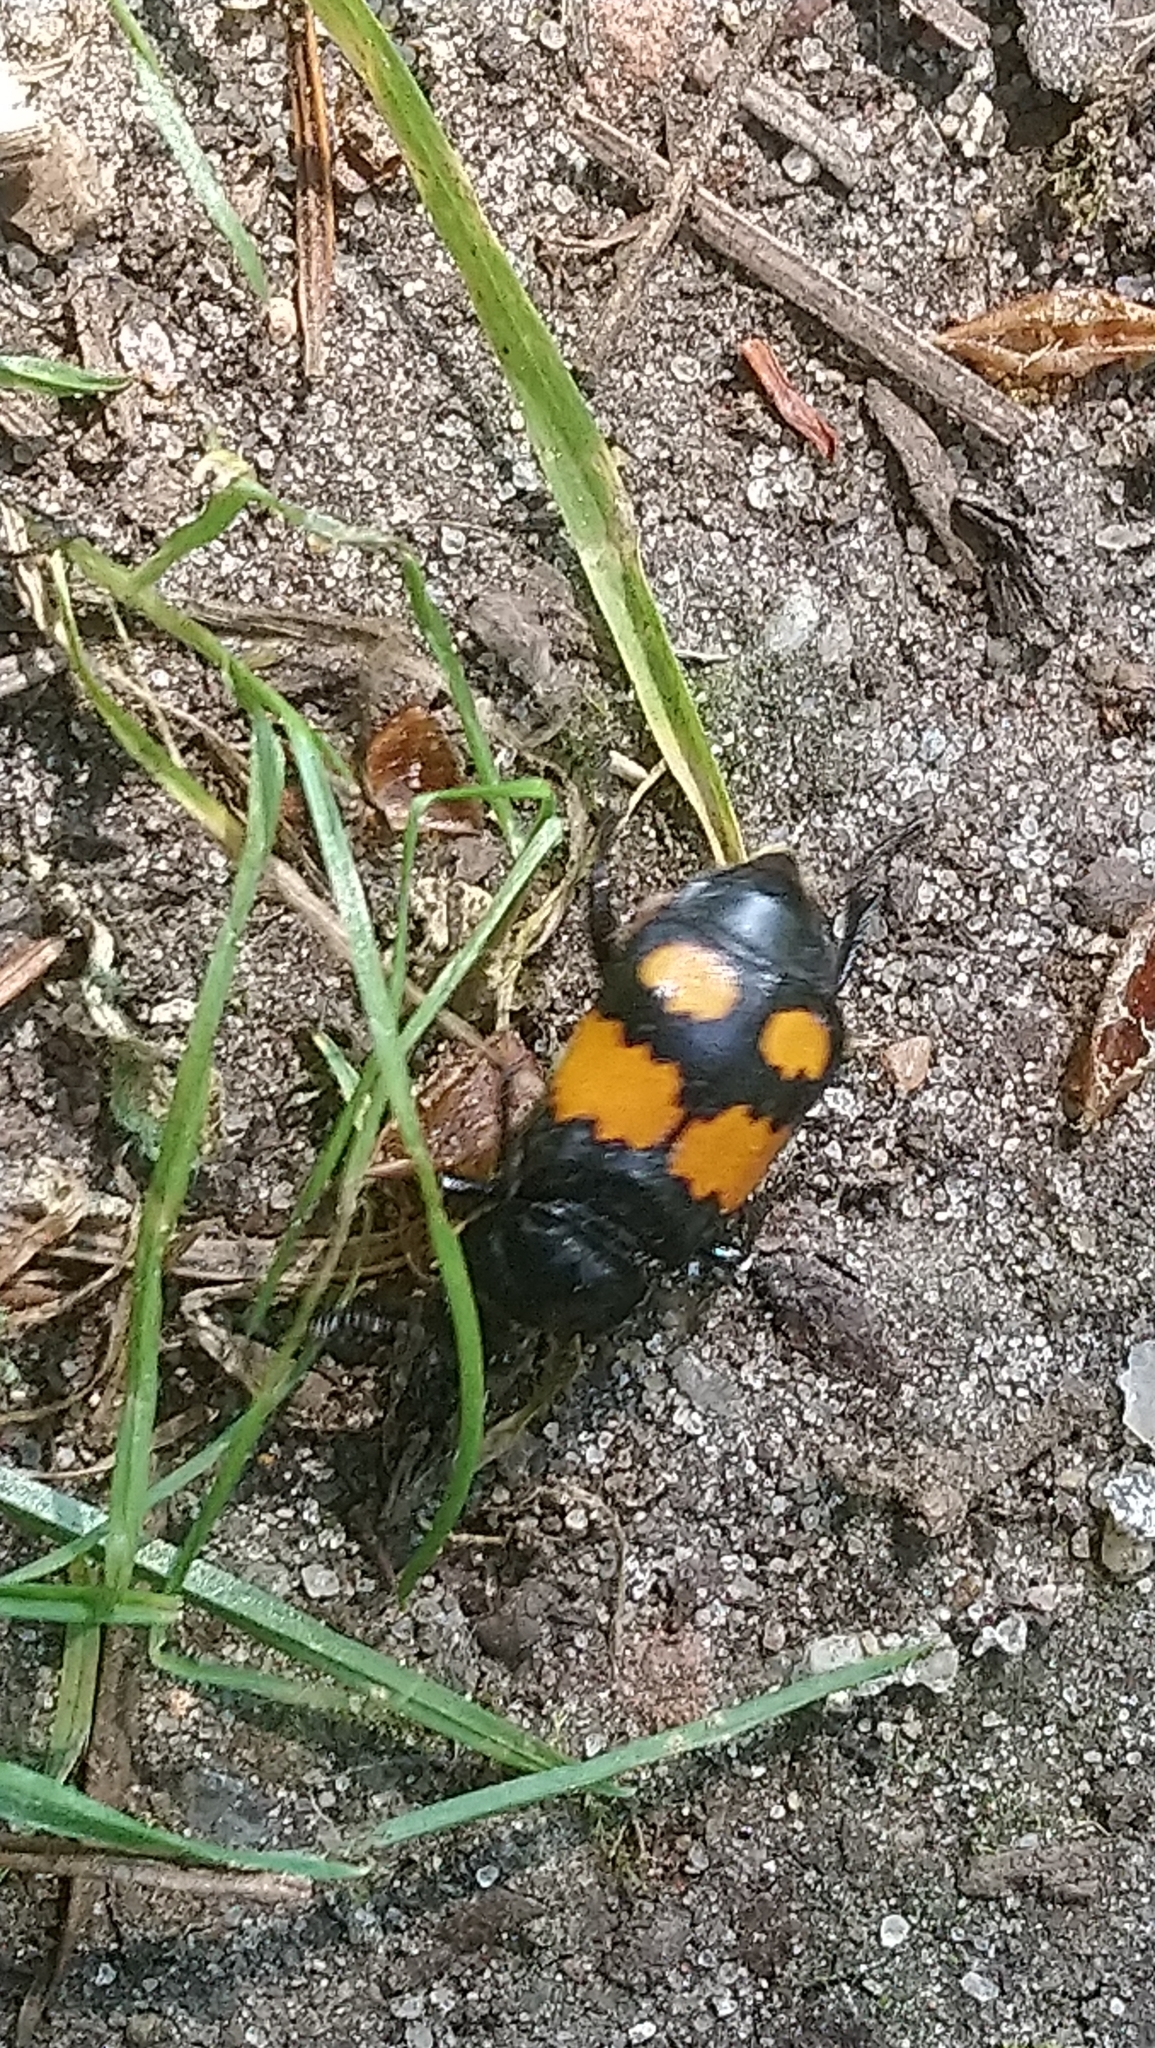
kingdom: Animalia
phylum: Arthropoda
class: Insecta
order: Coleoptera
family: Staphylinidae
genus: Nicrophorus
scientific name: Nicrophorus vespilloides
